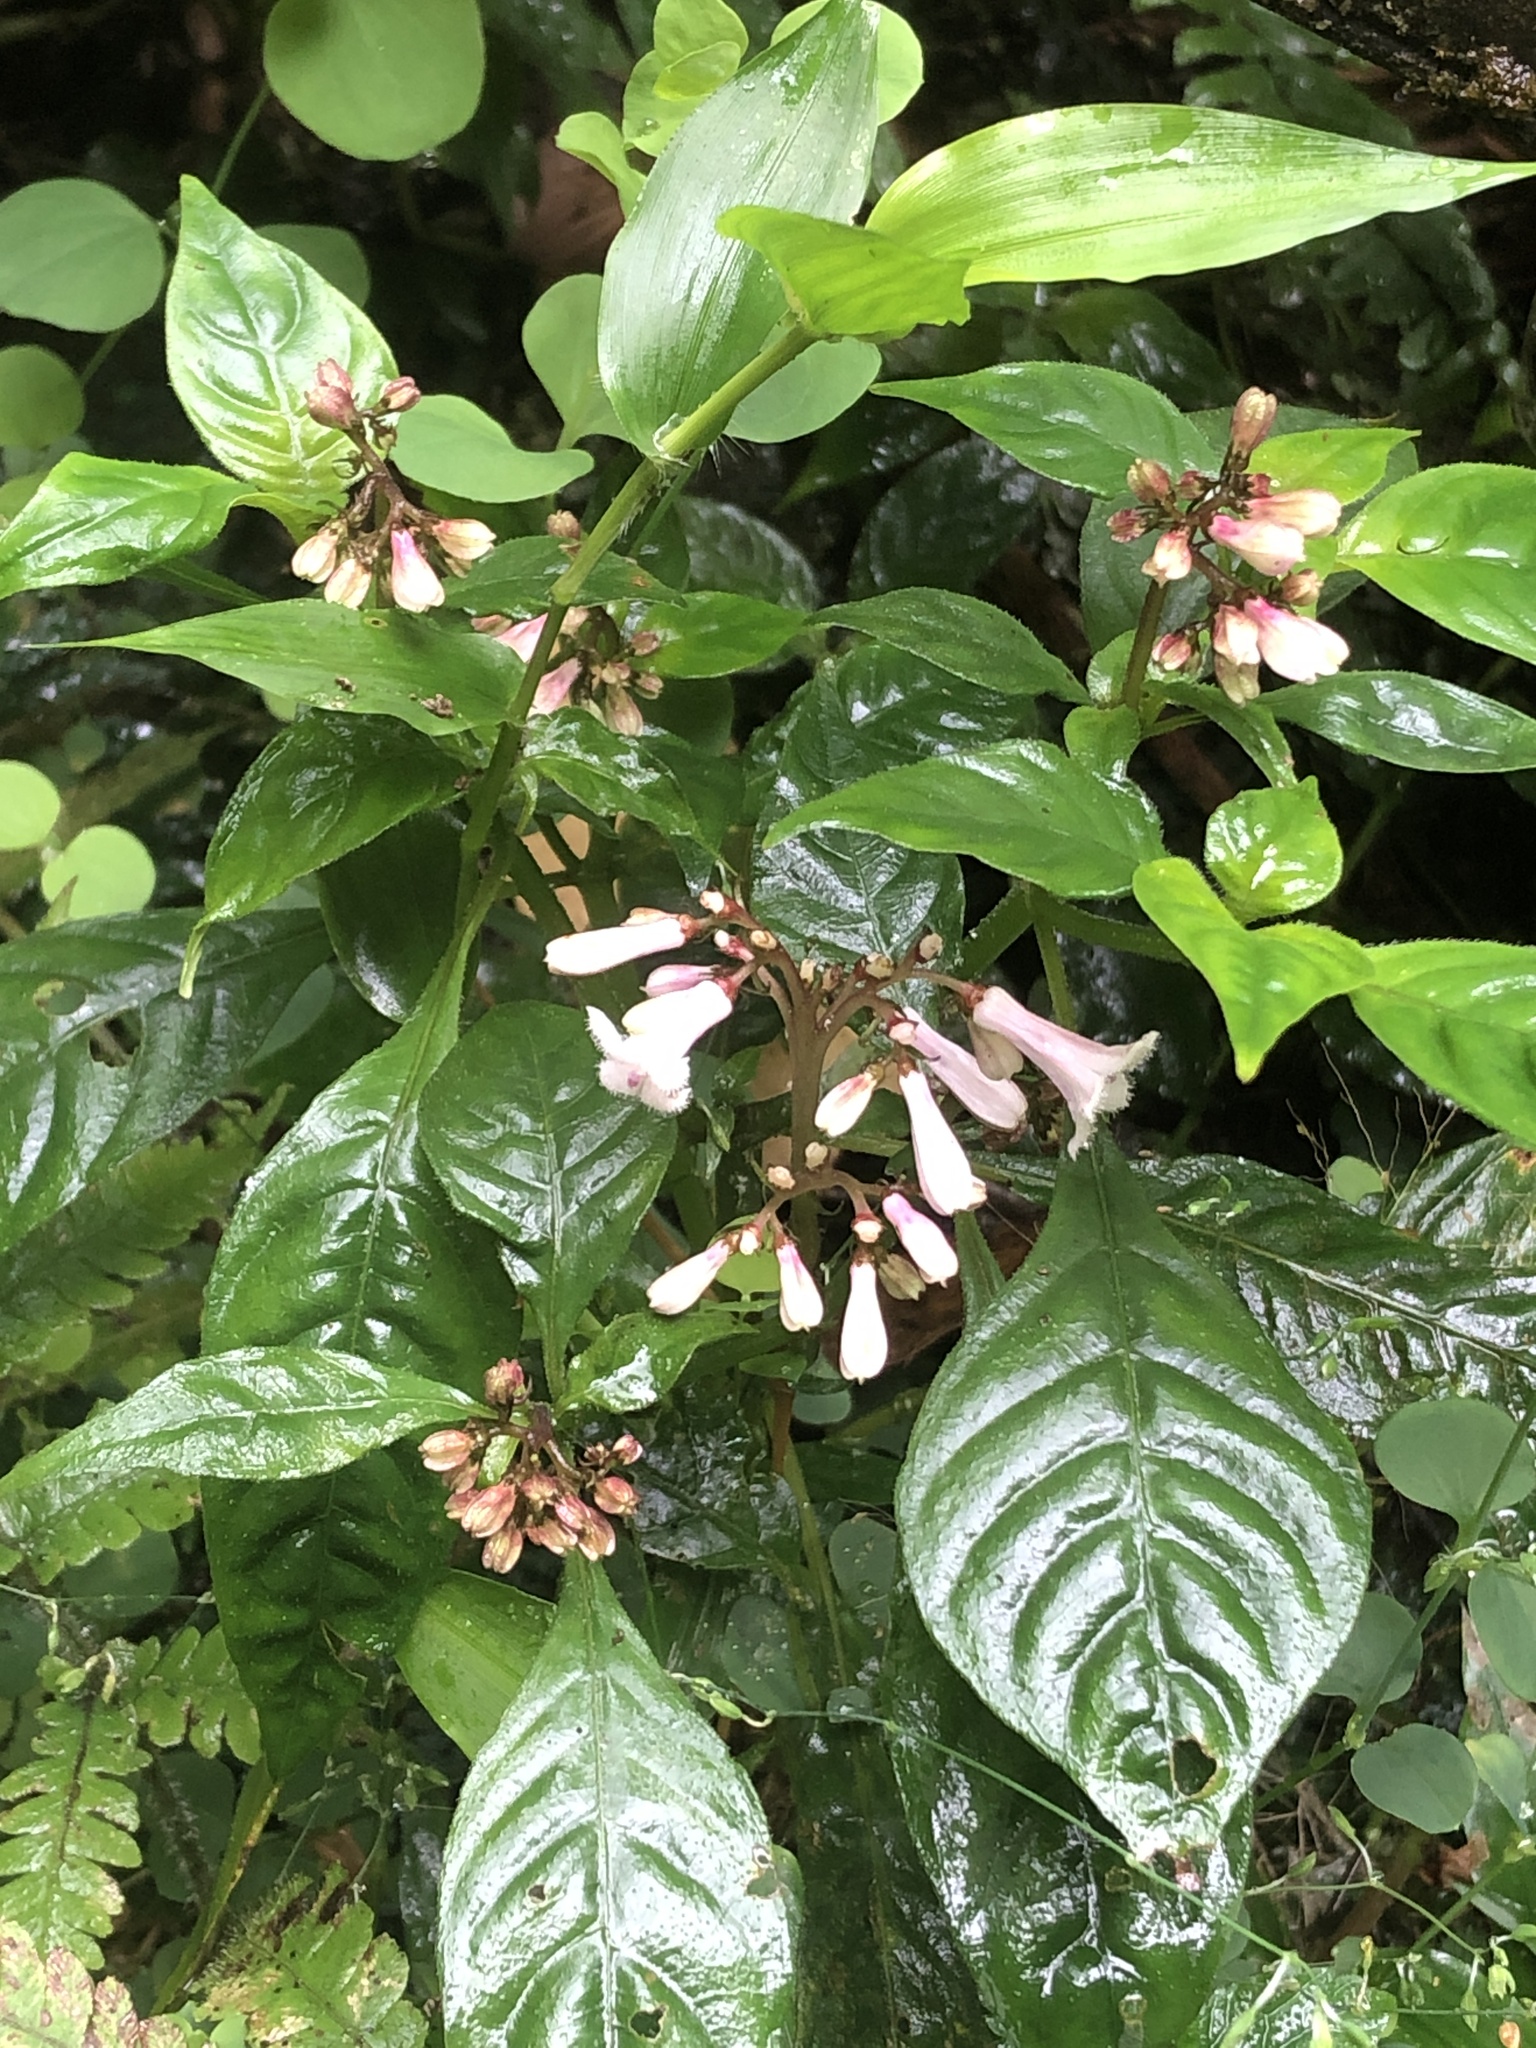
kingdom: Plantae
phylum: Tracheophyta
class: Magnoliopsida
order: Gentianales
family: Rubiaceae
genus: Ophiorrhiza
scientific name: Ophiorrhiza japonica
